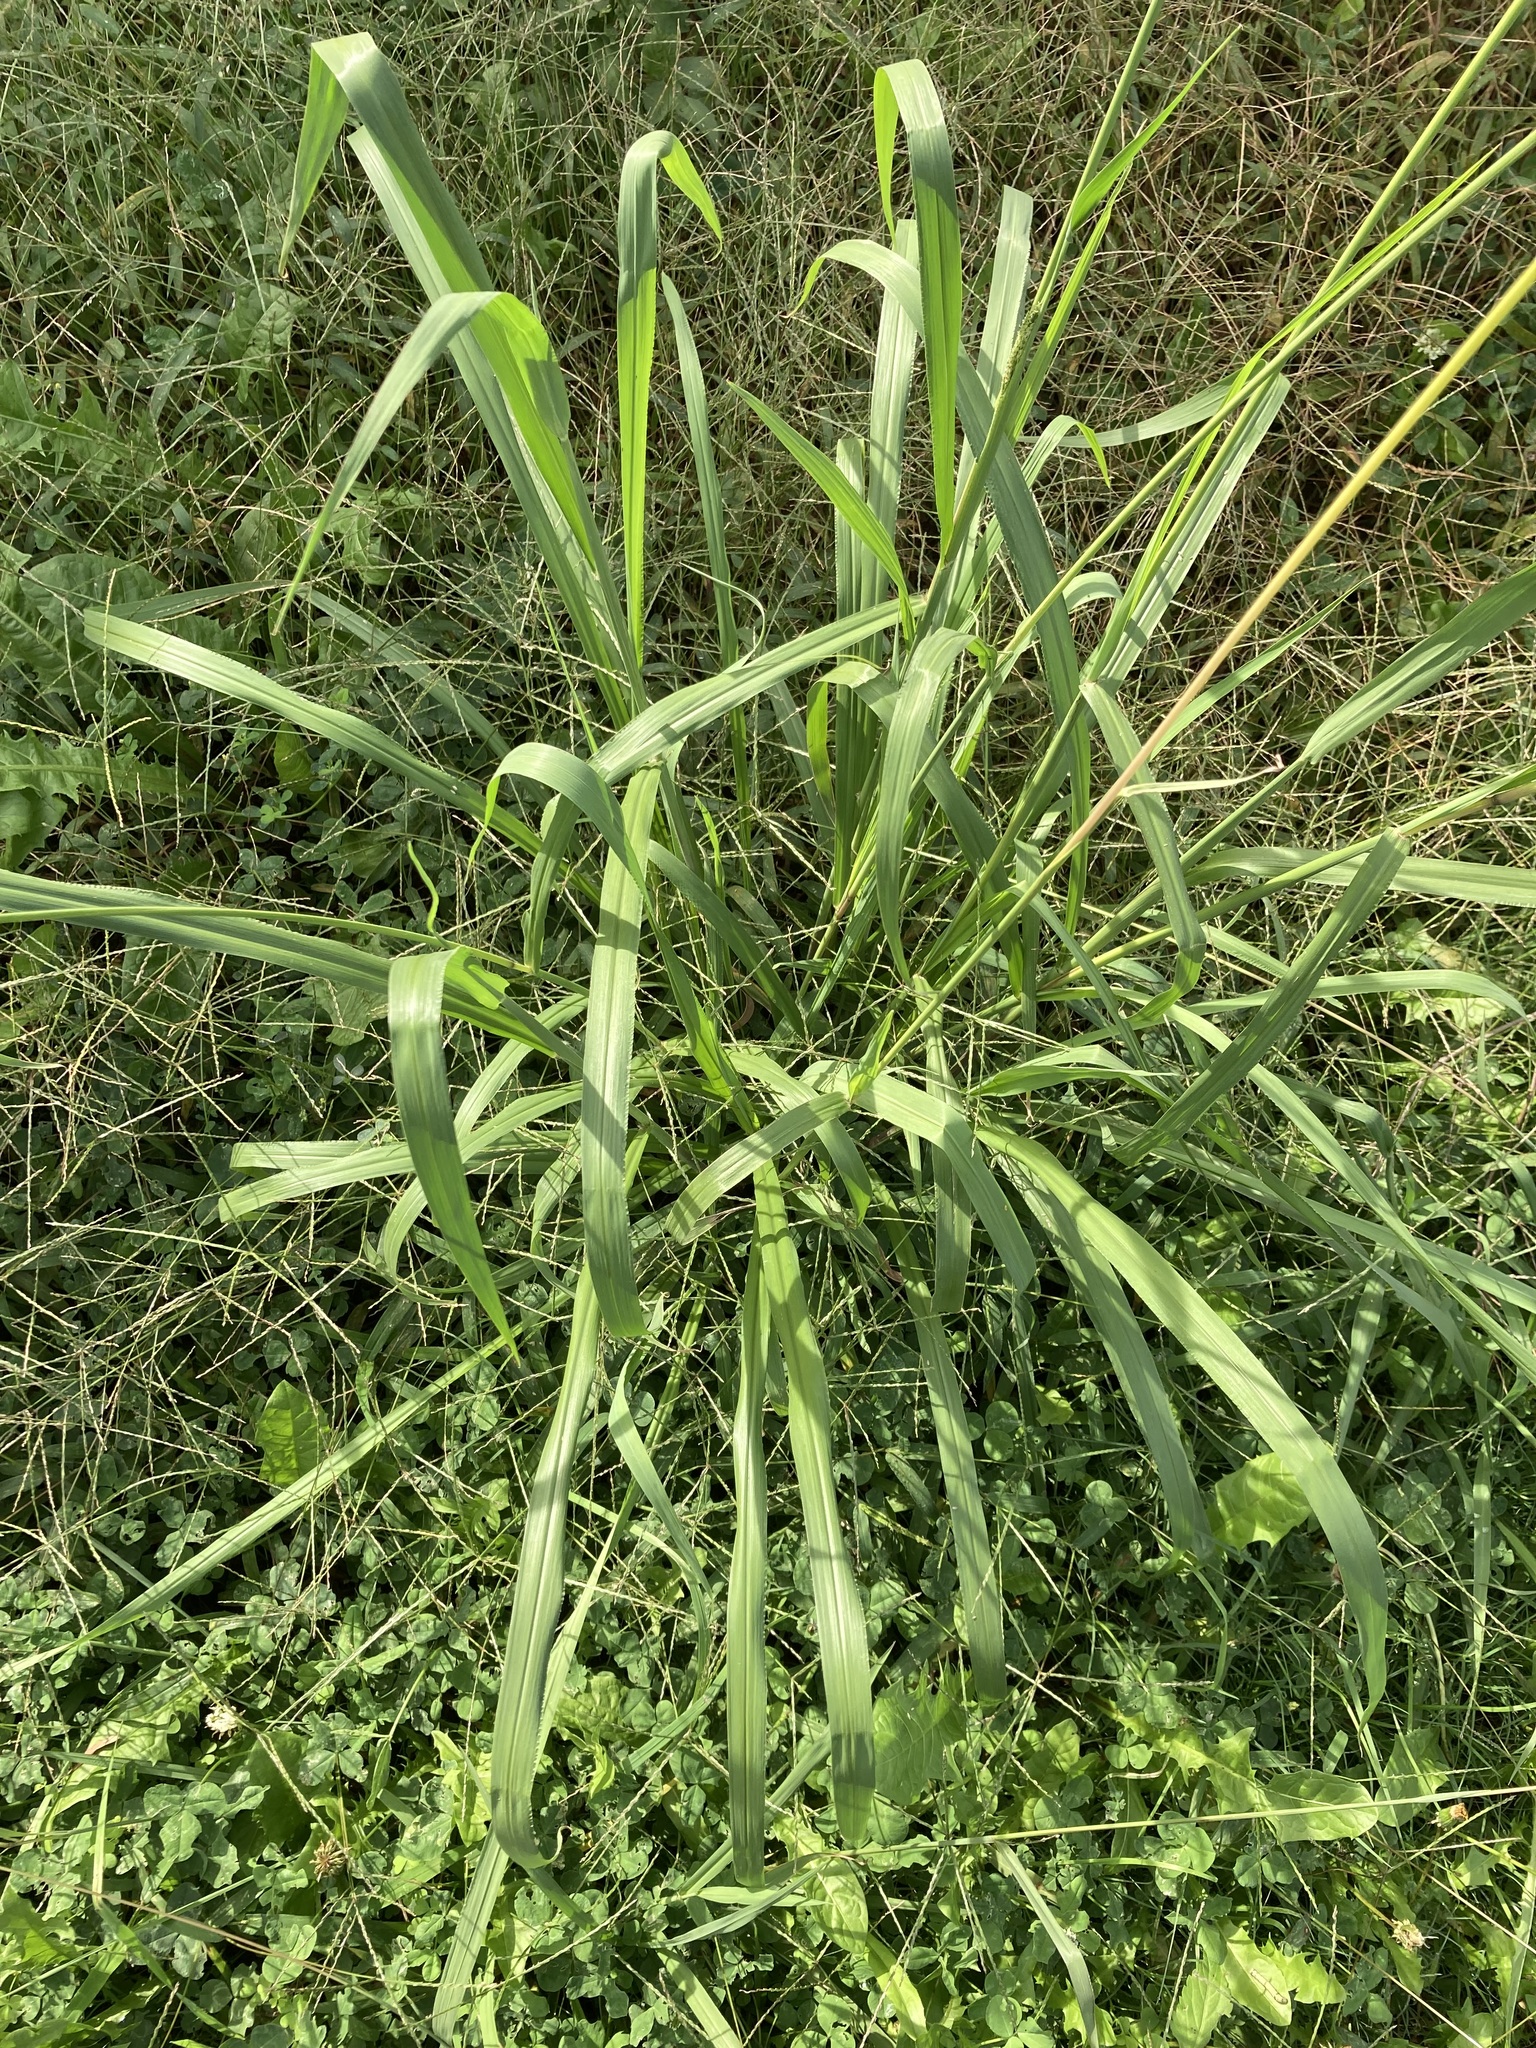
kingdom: Plantae
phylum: Tracheophyta
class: Liliopsida
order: Poales
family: Poaceae
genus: Paspalum
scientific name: Paspalum urvillei
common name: Vasey's grass
